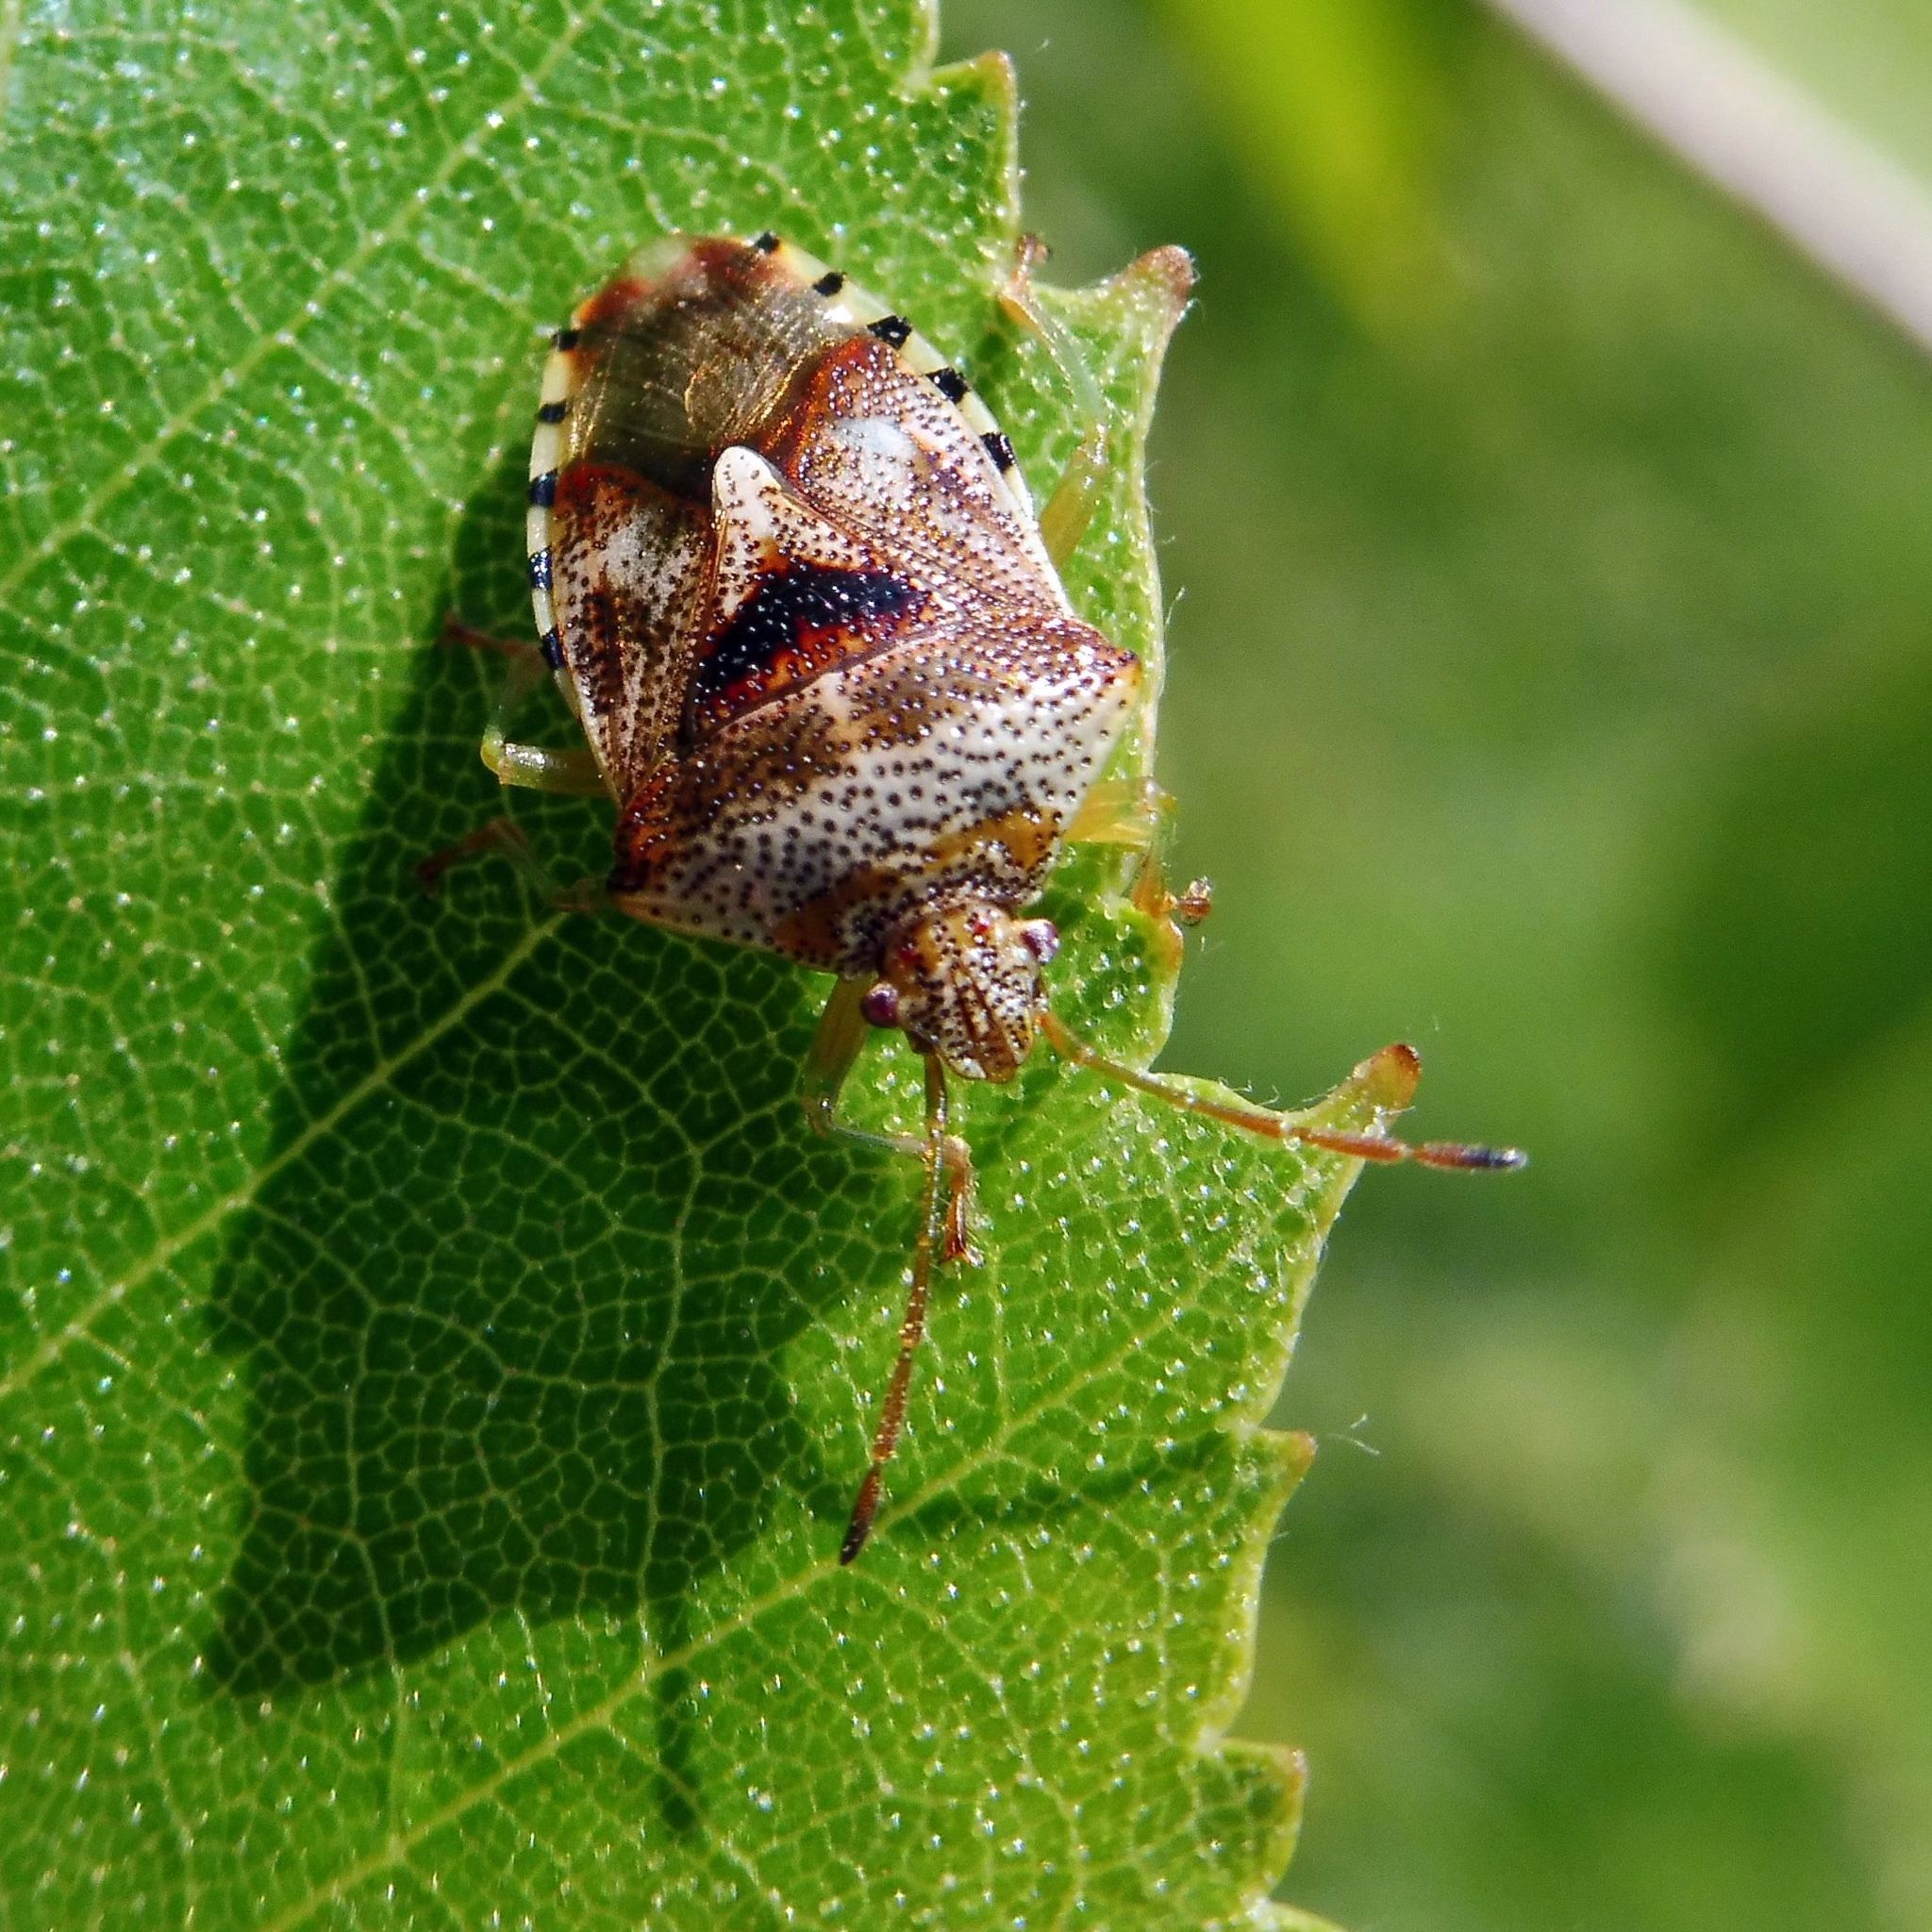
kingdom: Animalia
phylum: Arthropoda
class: Insecta
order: Hemiptera
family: Acanthosomatidae
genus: Elasmucha
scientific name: Elasmucha grisea
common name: Parent bug
